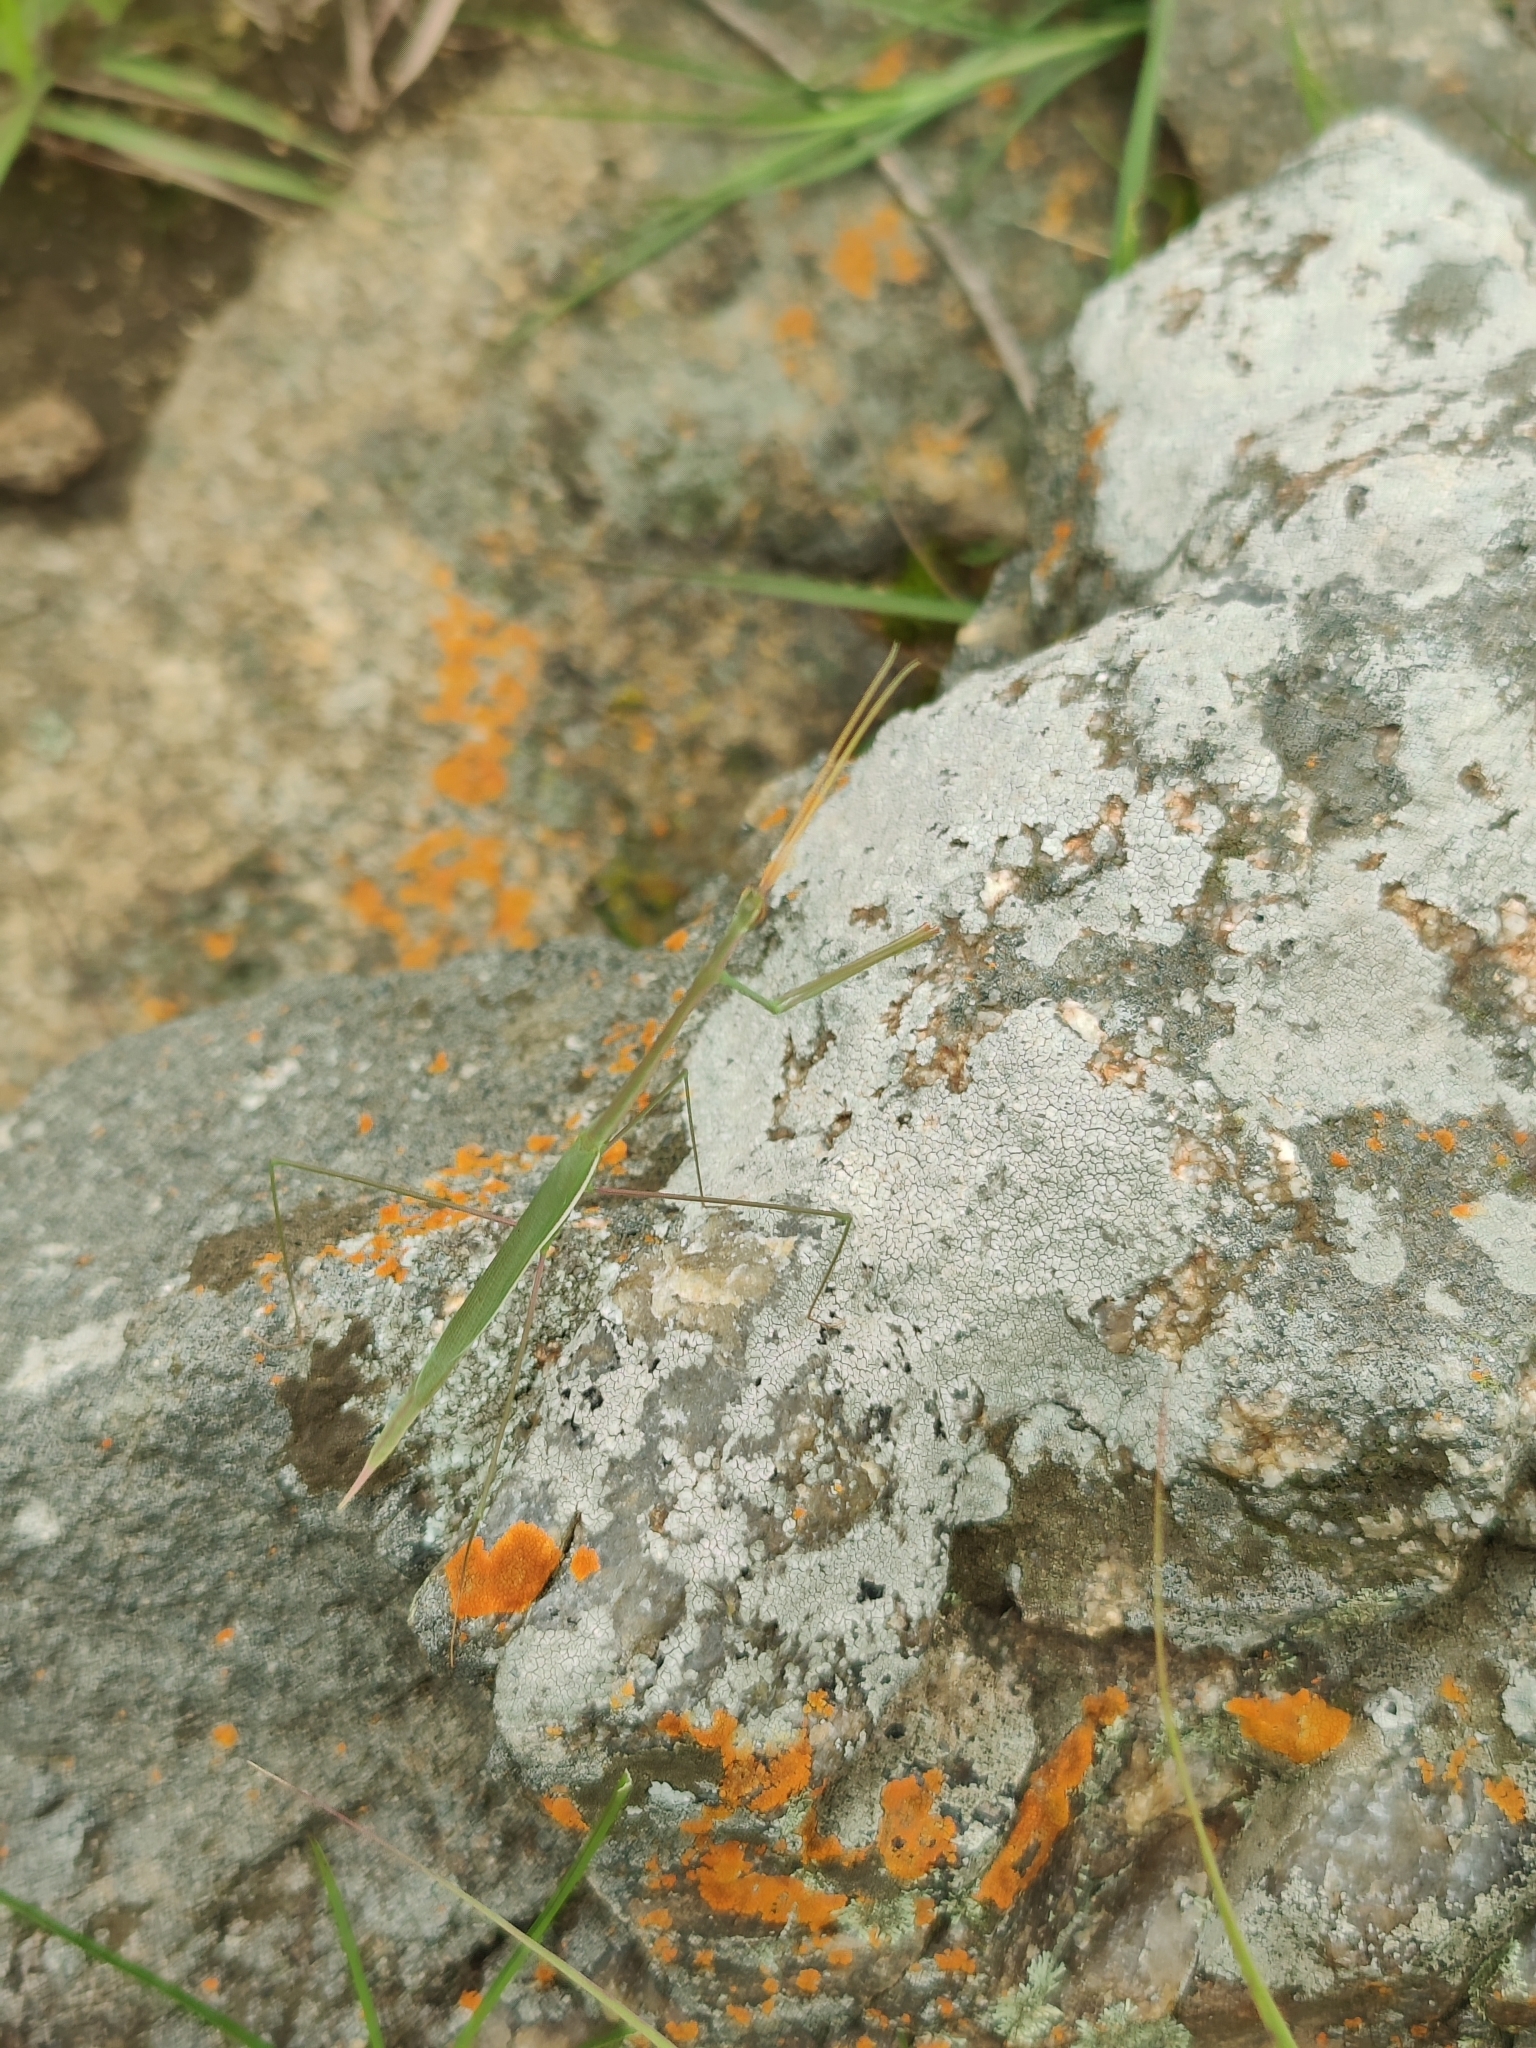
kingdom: Animalia
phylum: Arthropoda
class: Insecta
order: Mantodea
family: Eremiaphilidae
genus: Schizocephala
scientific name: Schizocephala bicornis
